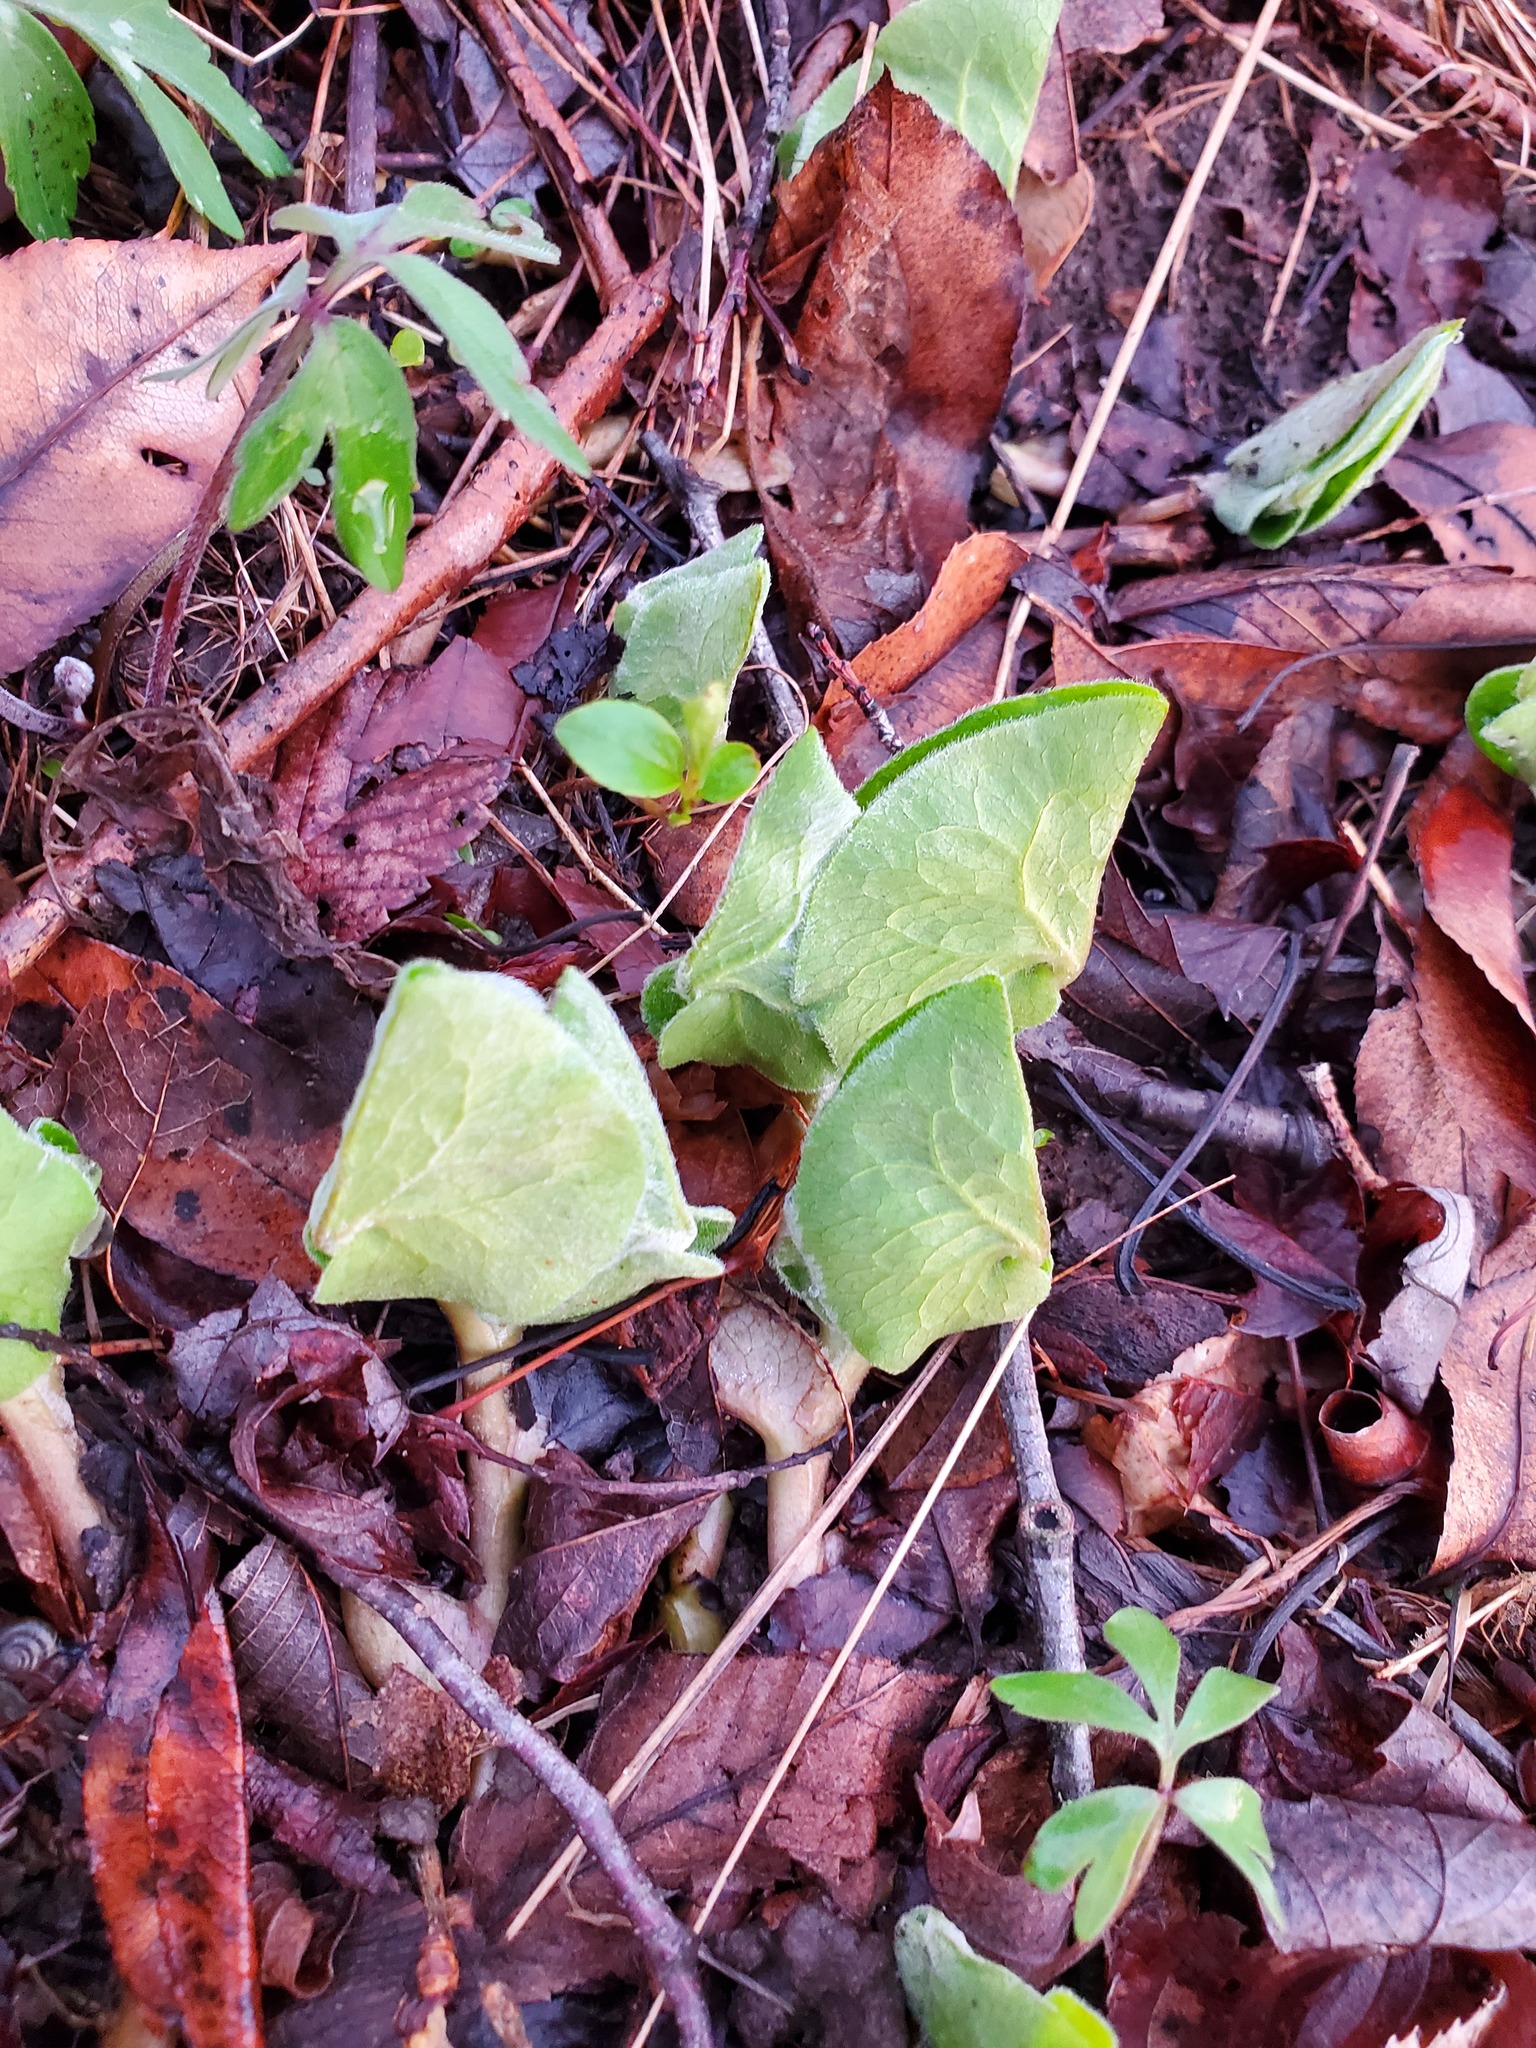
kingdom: Plantae
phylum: Tracheophyta
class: Magnoliopsida
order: Piperales
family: Aristolochiaceae
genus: Asarum
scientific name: Asarum canadense
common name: Wild ginger
